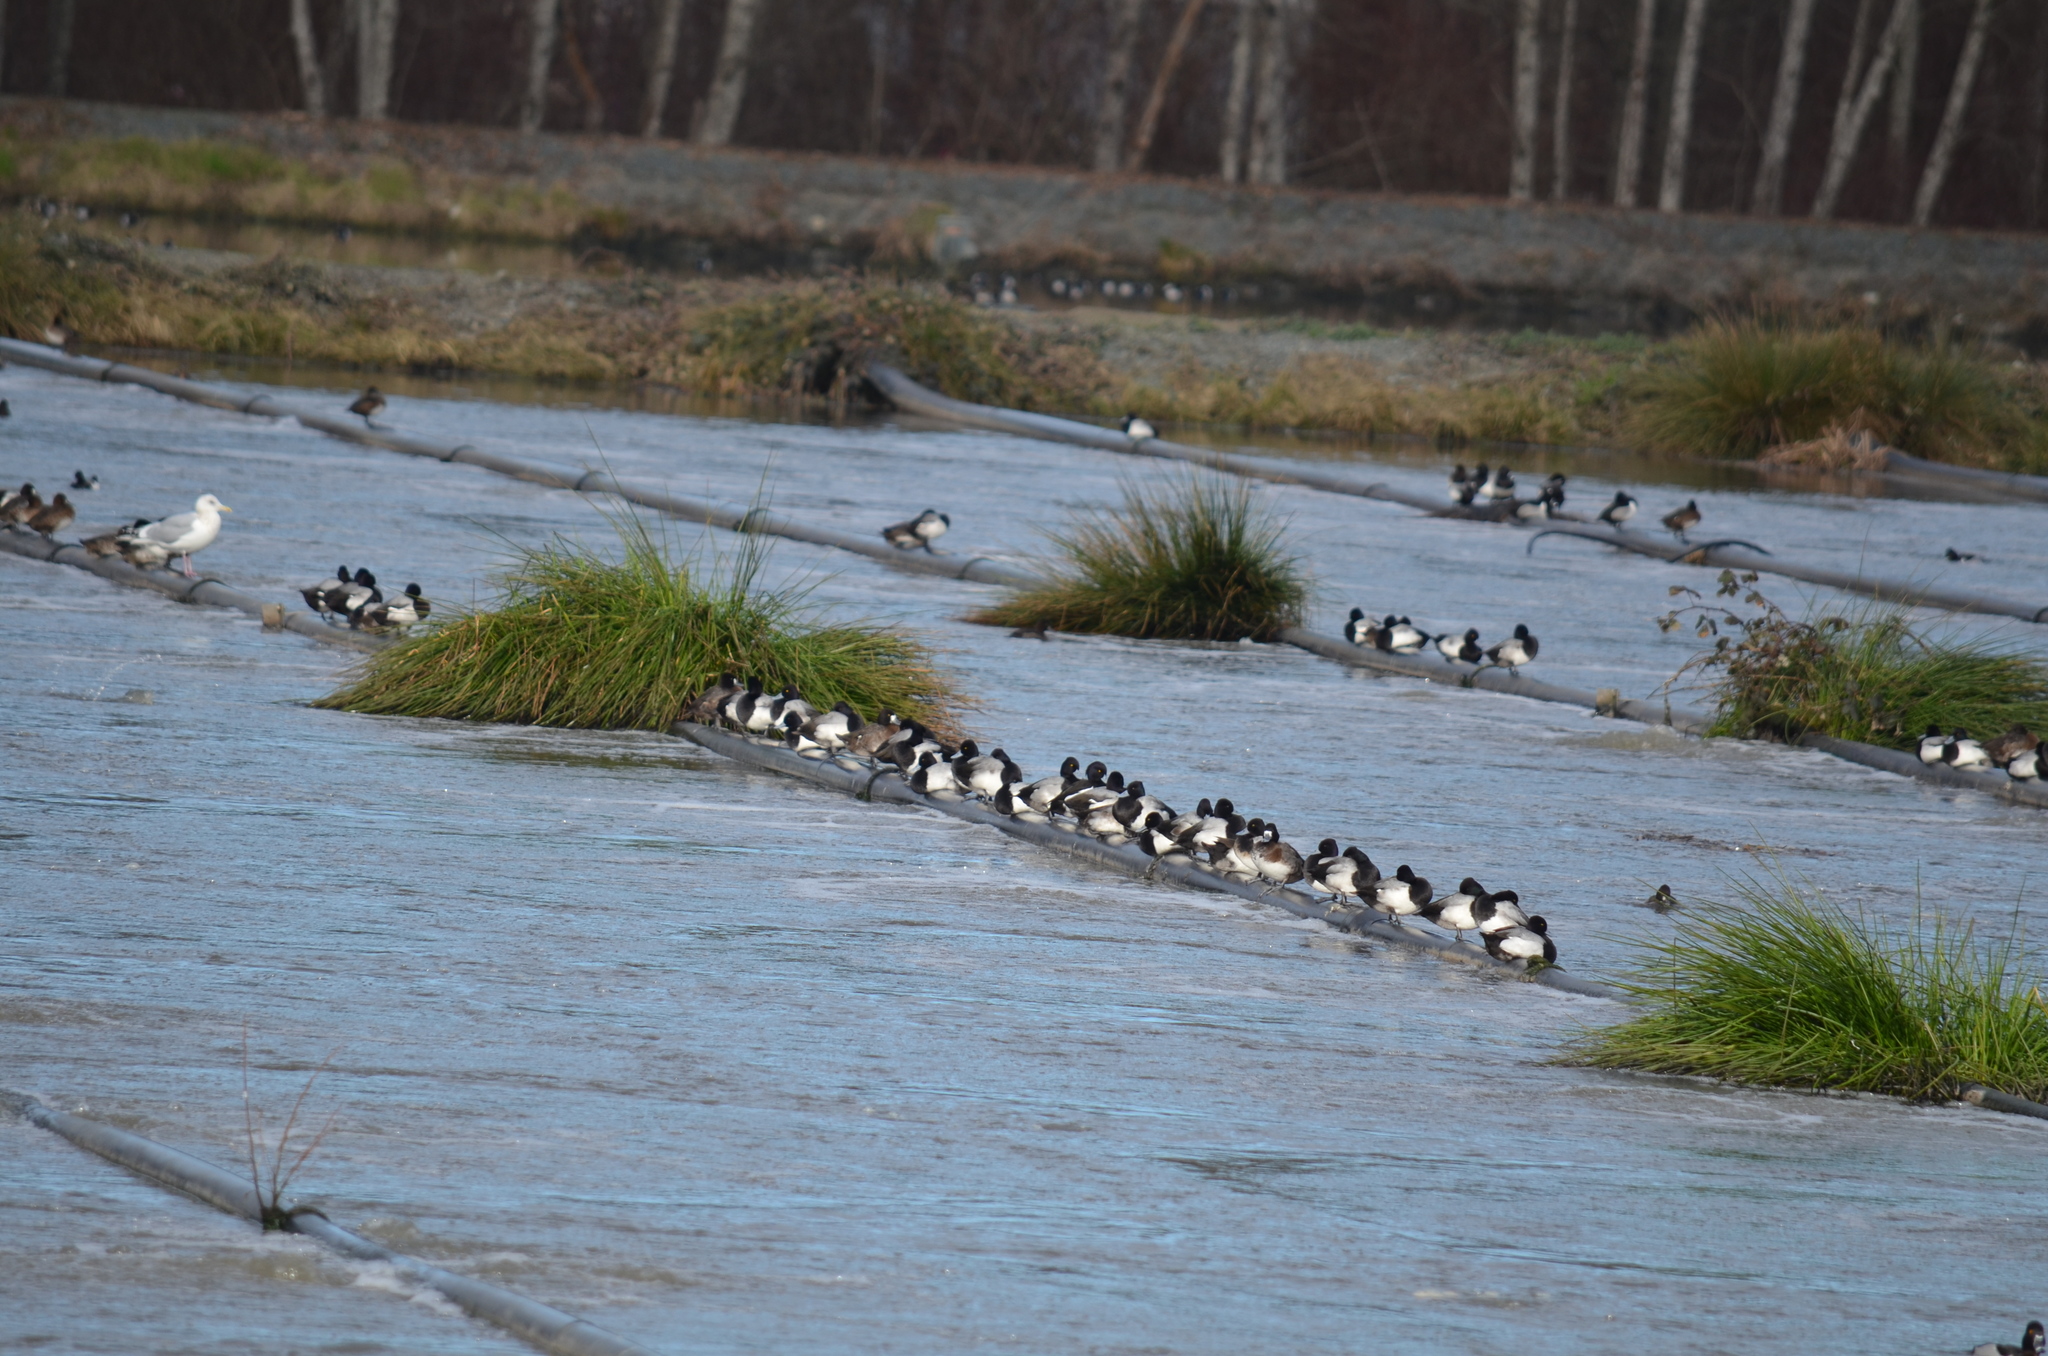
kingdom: Animalia
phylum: Chordata
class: Aves
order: Anseriformes
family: Anatidae
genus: Aythya
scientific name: Aythya affinis
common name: Lesser scaup
